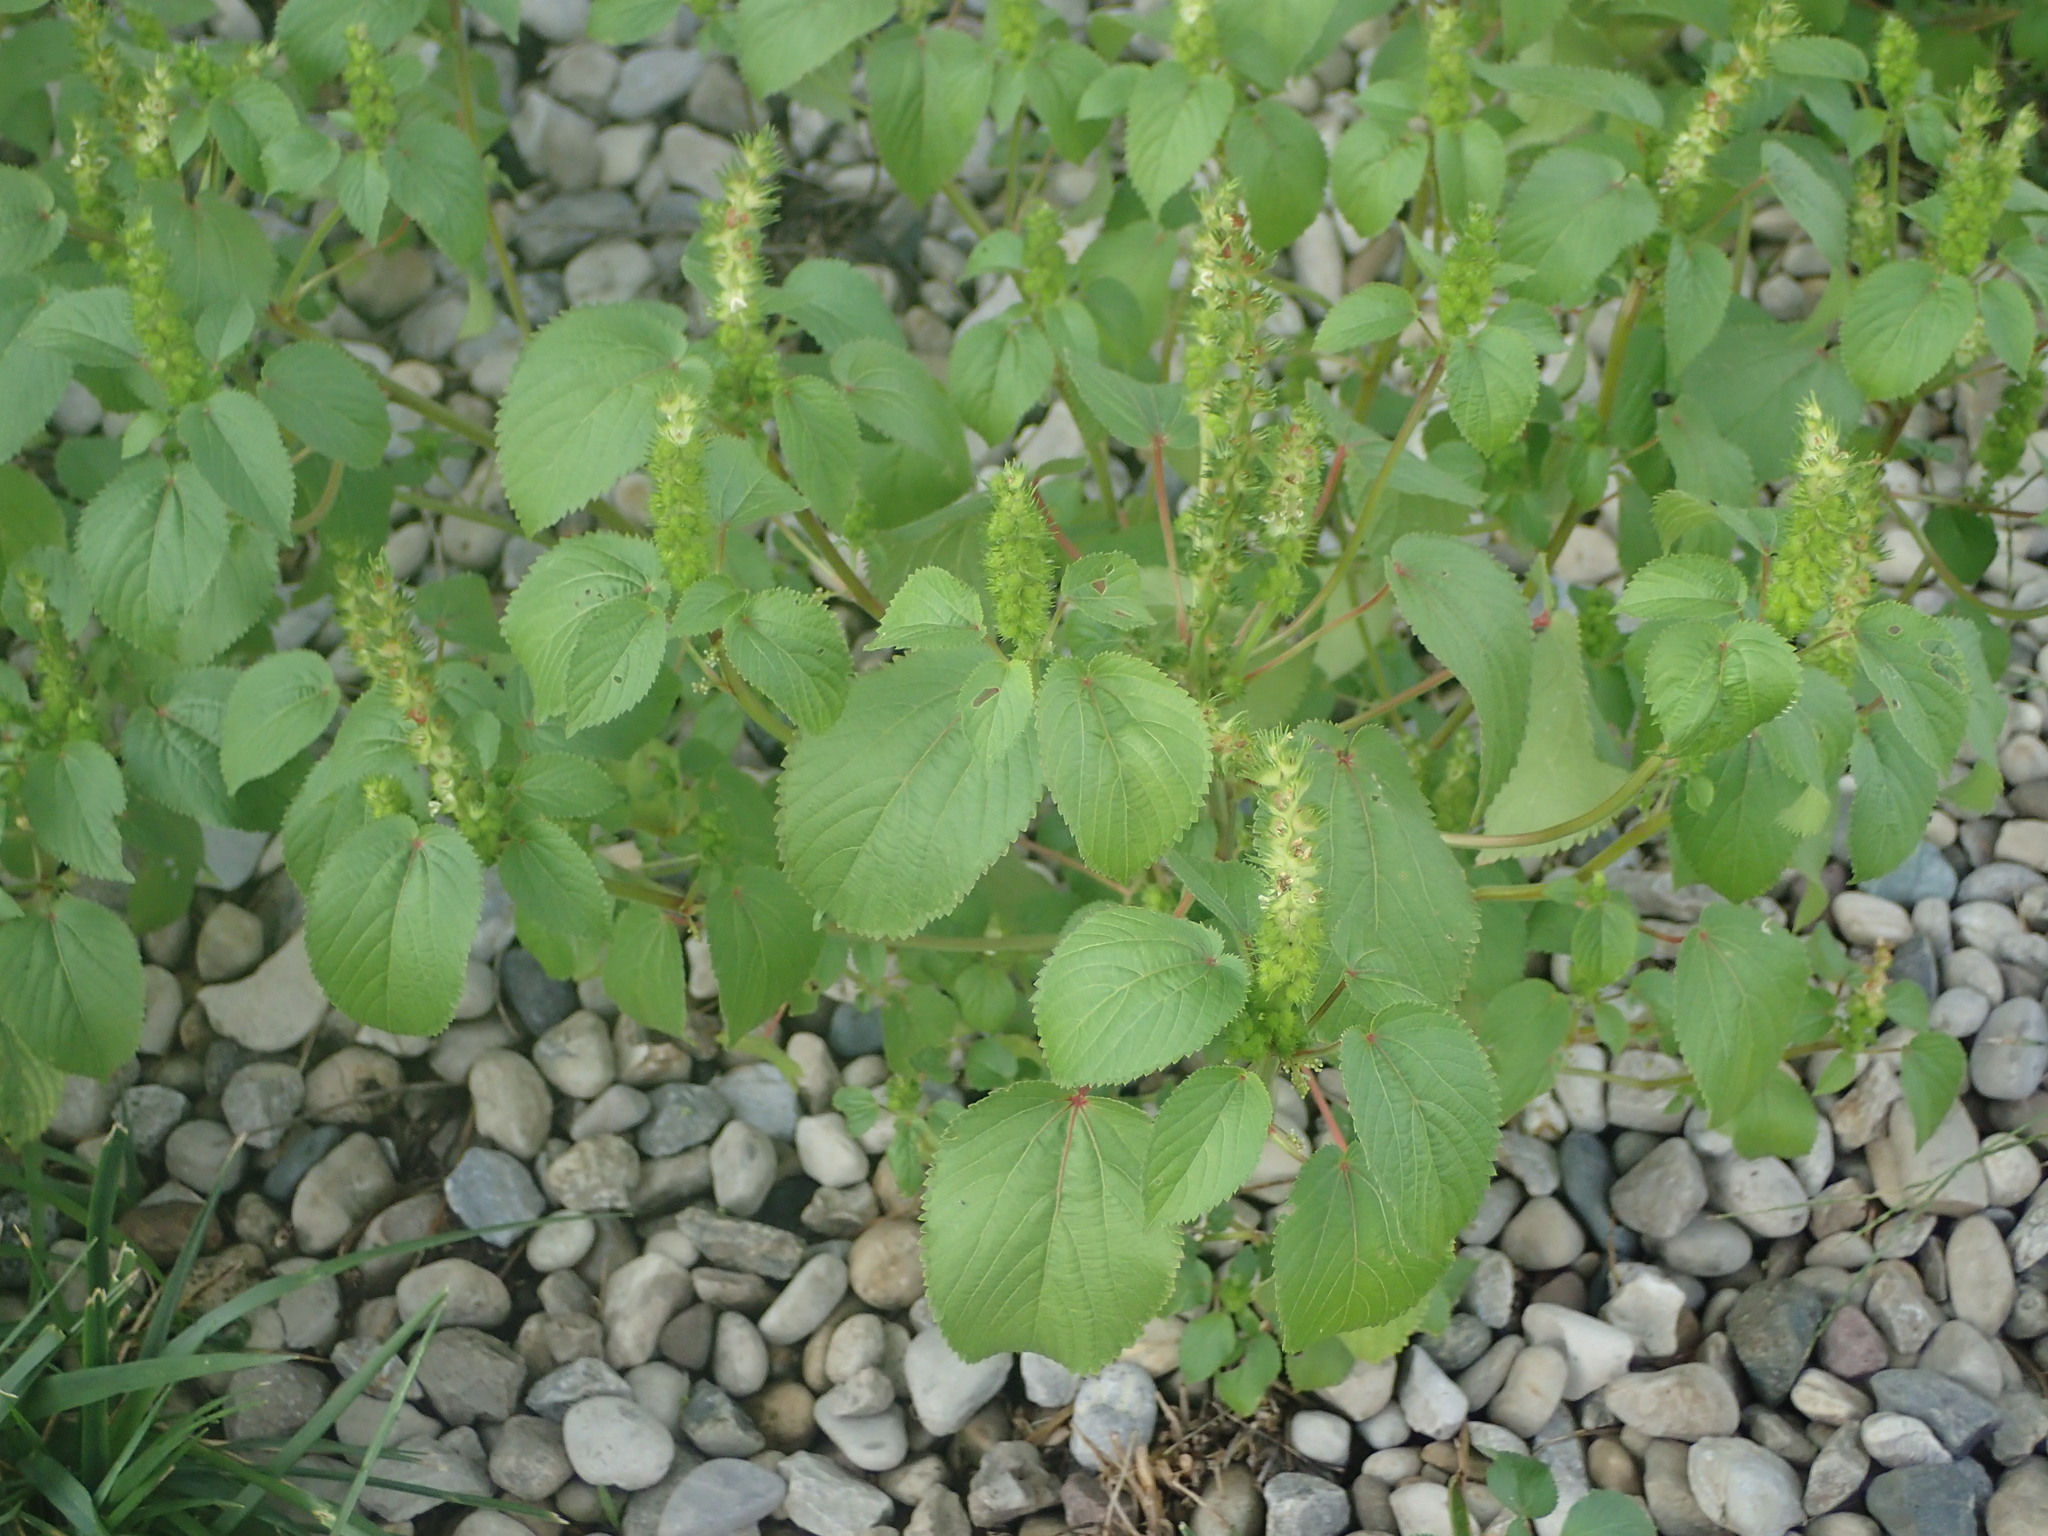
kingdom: Plantae
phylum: Tracheophyta
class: Magnoliopsida
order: Malpighiales
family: Euphorbiaceae
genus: Acalypha
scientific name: Acalypha ostryifolia
